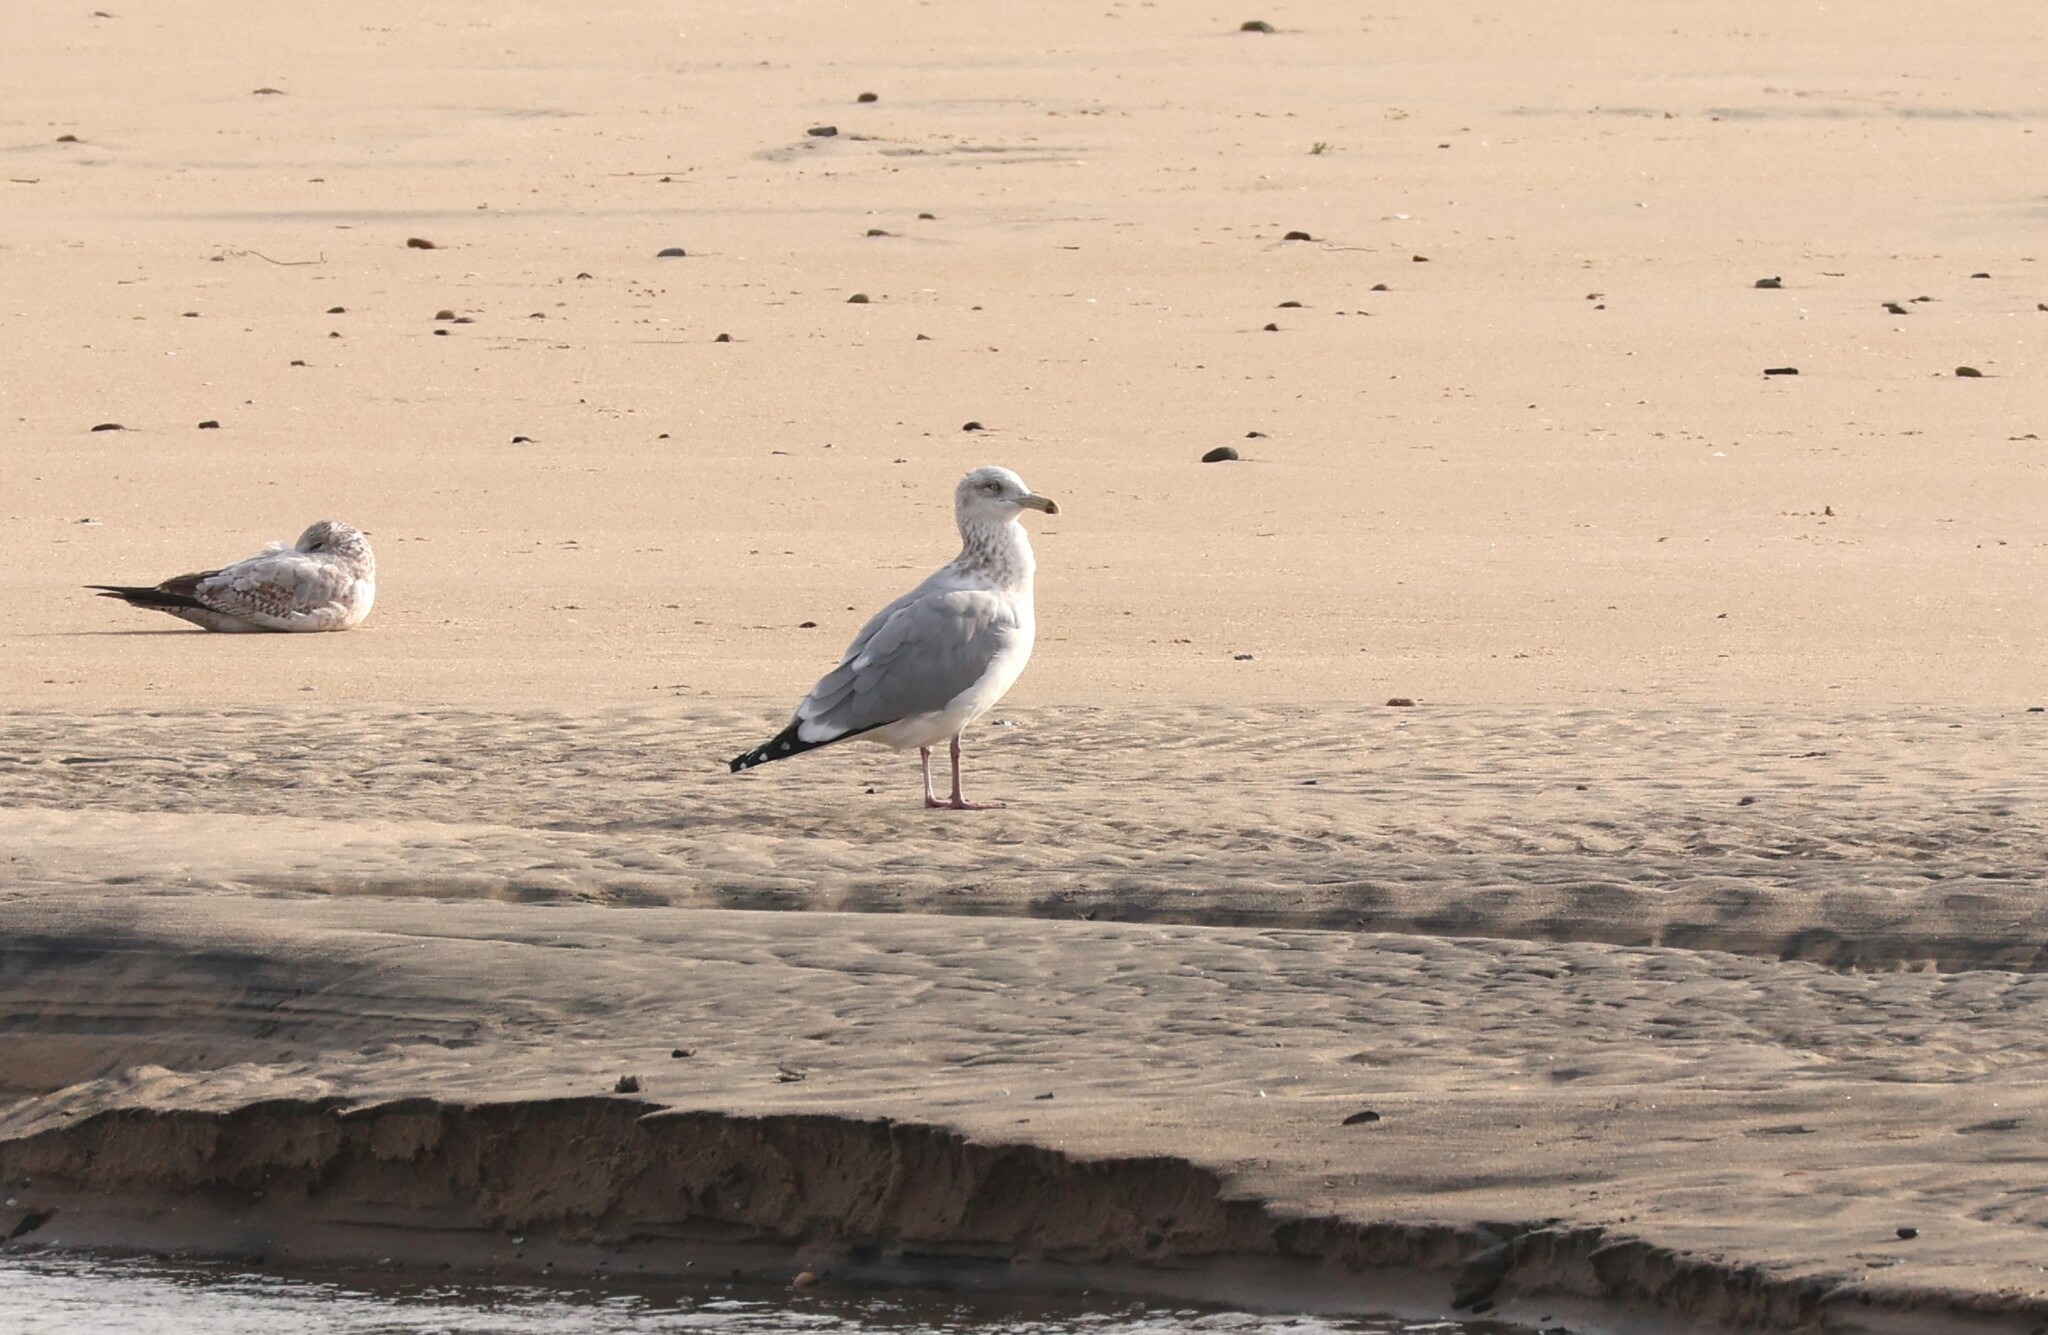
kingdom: Animalia
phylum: Chordata
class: Aves
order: Charadriiformes
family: Laridae
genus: Larus
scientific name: Larus argentatus
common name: Herring gull
